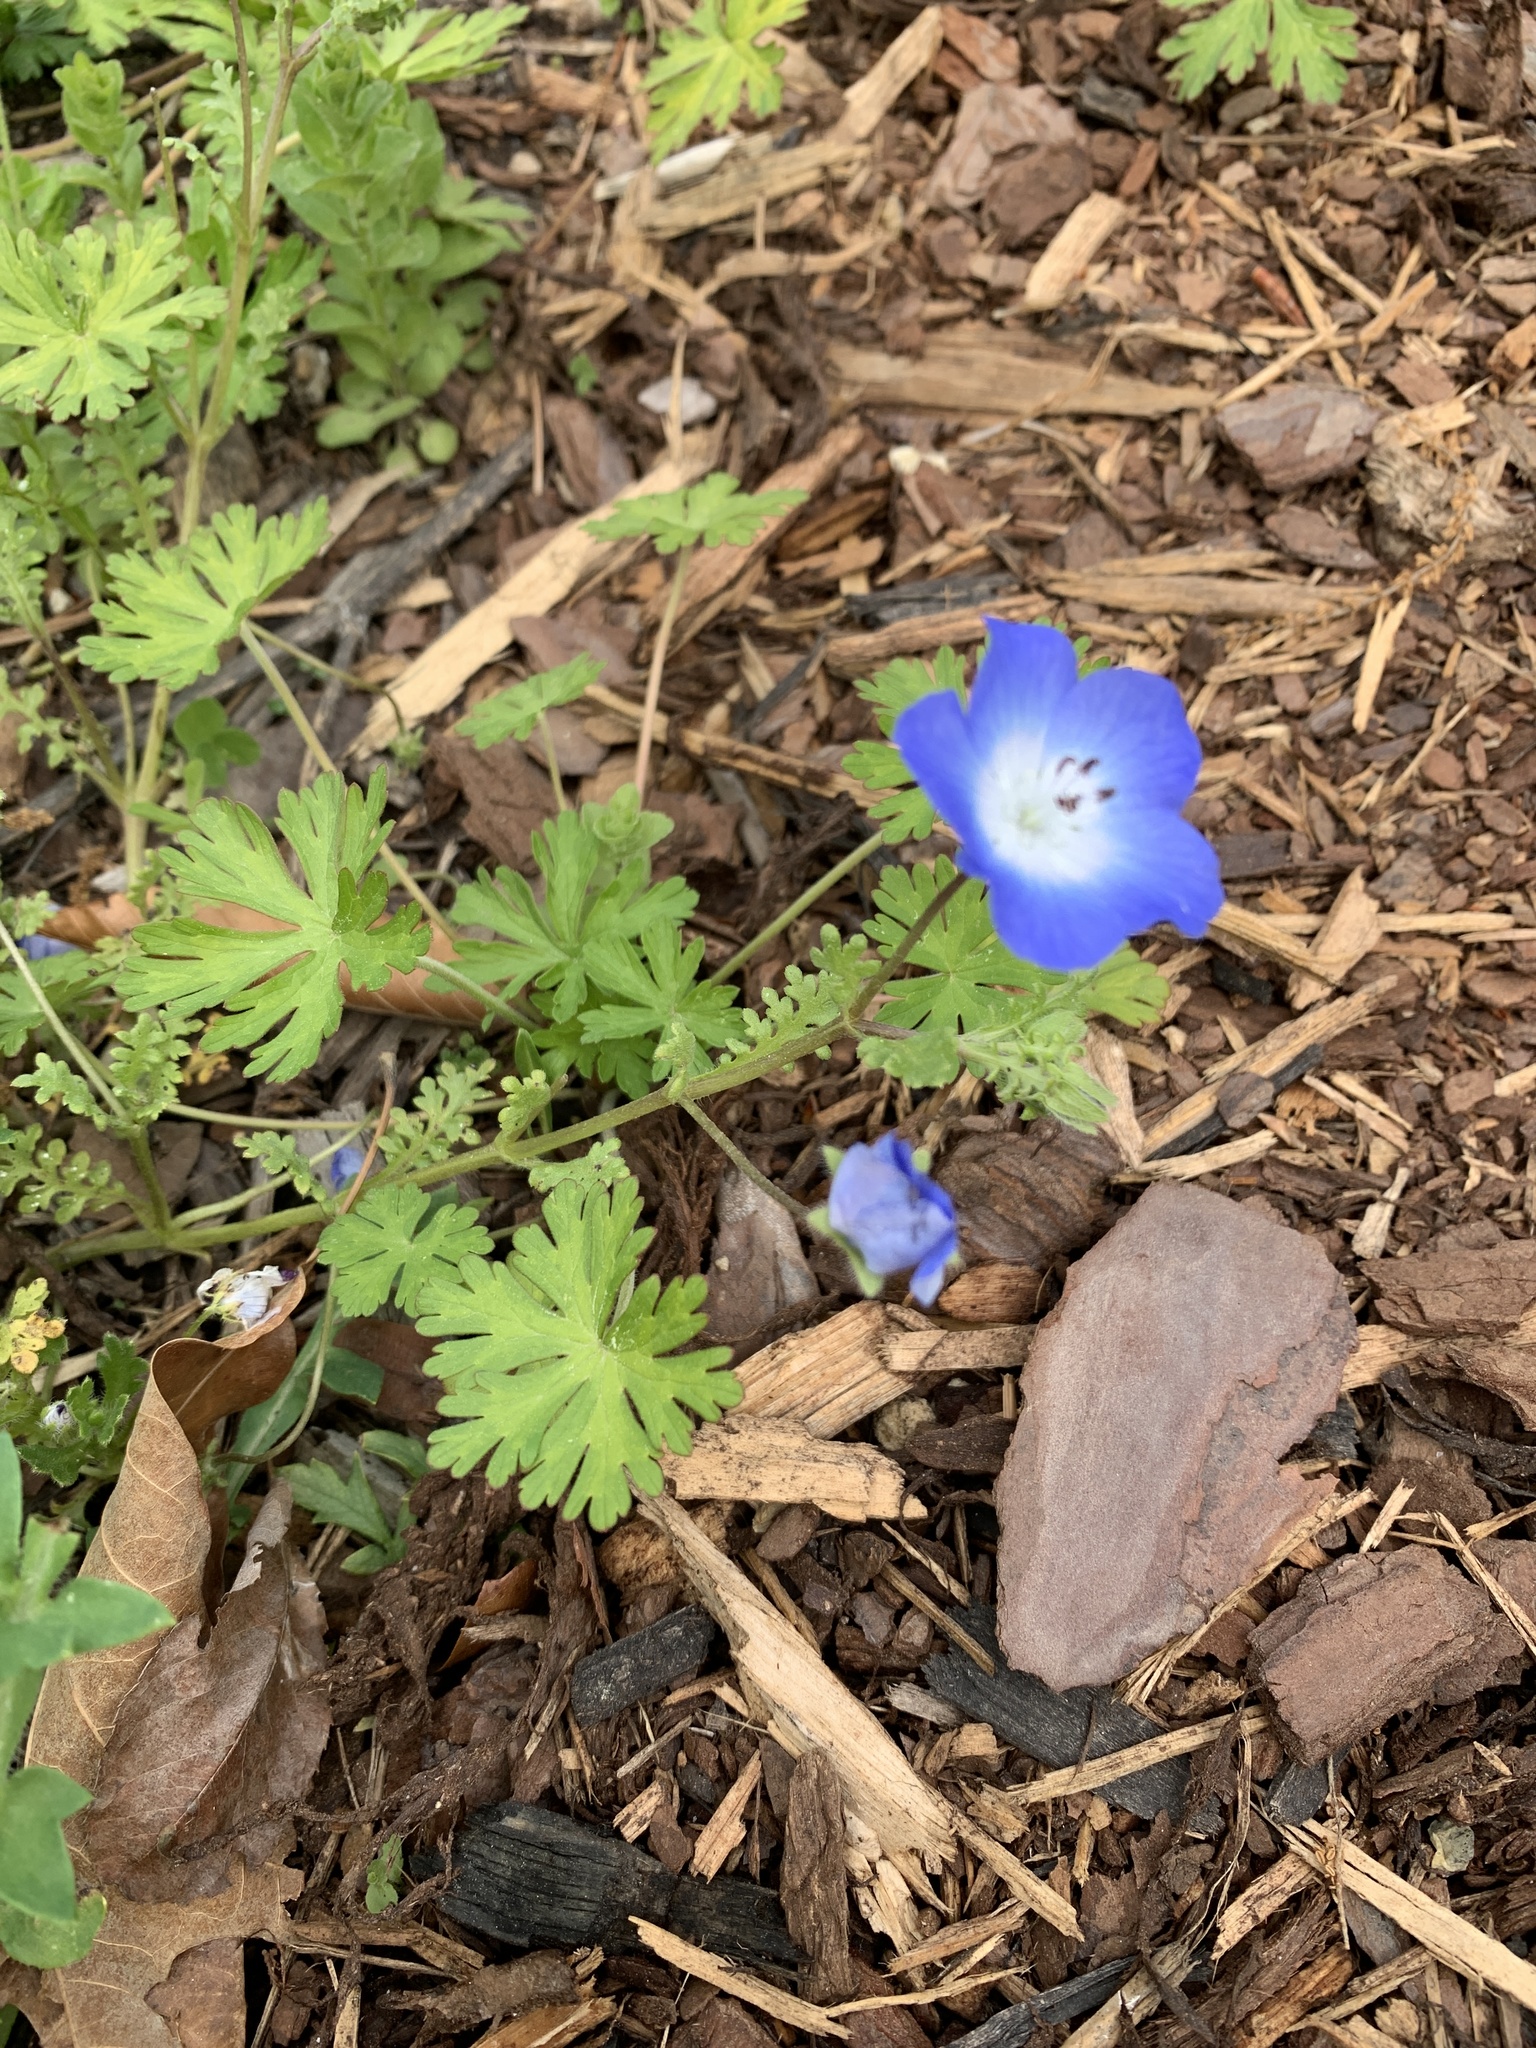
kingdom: Plantae
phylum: Tracheophyta
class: Magnoliopsida
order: Boraginales
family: Hydrophyllaceae
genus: Nemophila
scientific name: Nemophila menziesii
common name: Baby's-blue-eyes
